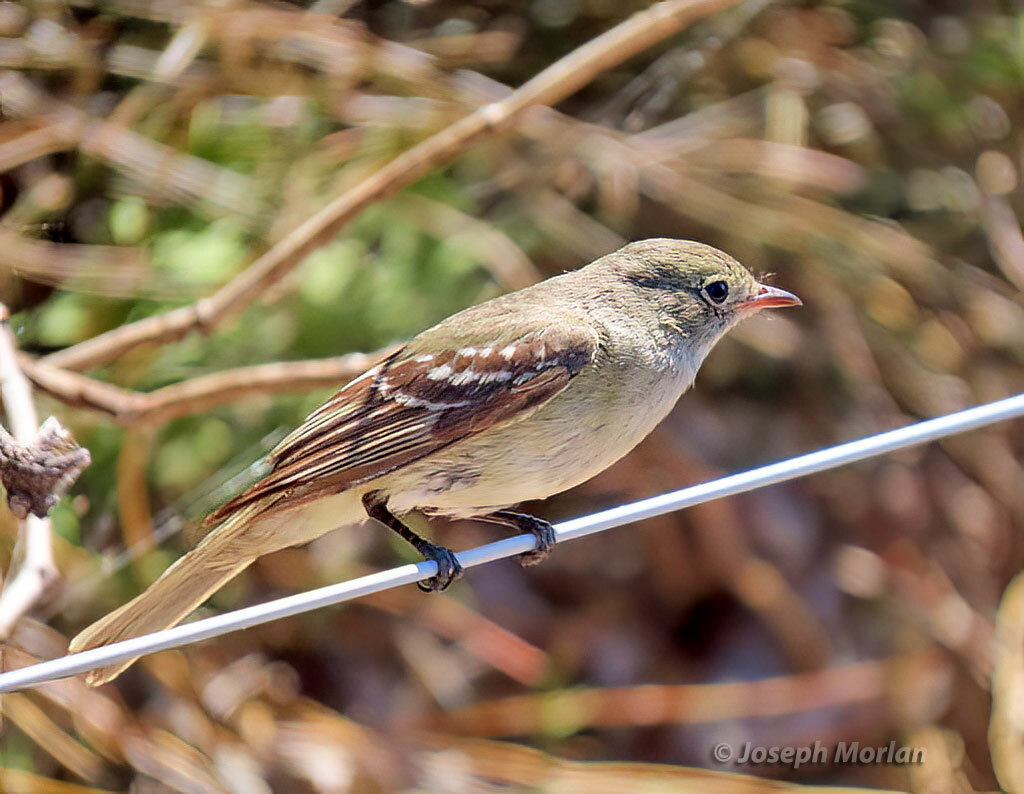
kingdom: Animalia
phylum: Chordata
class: Aves
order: Passeriformes
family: Tyrannidae
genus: Elaenia
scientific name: Elaenia parvirostris
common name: Small-billed elaenia
